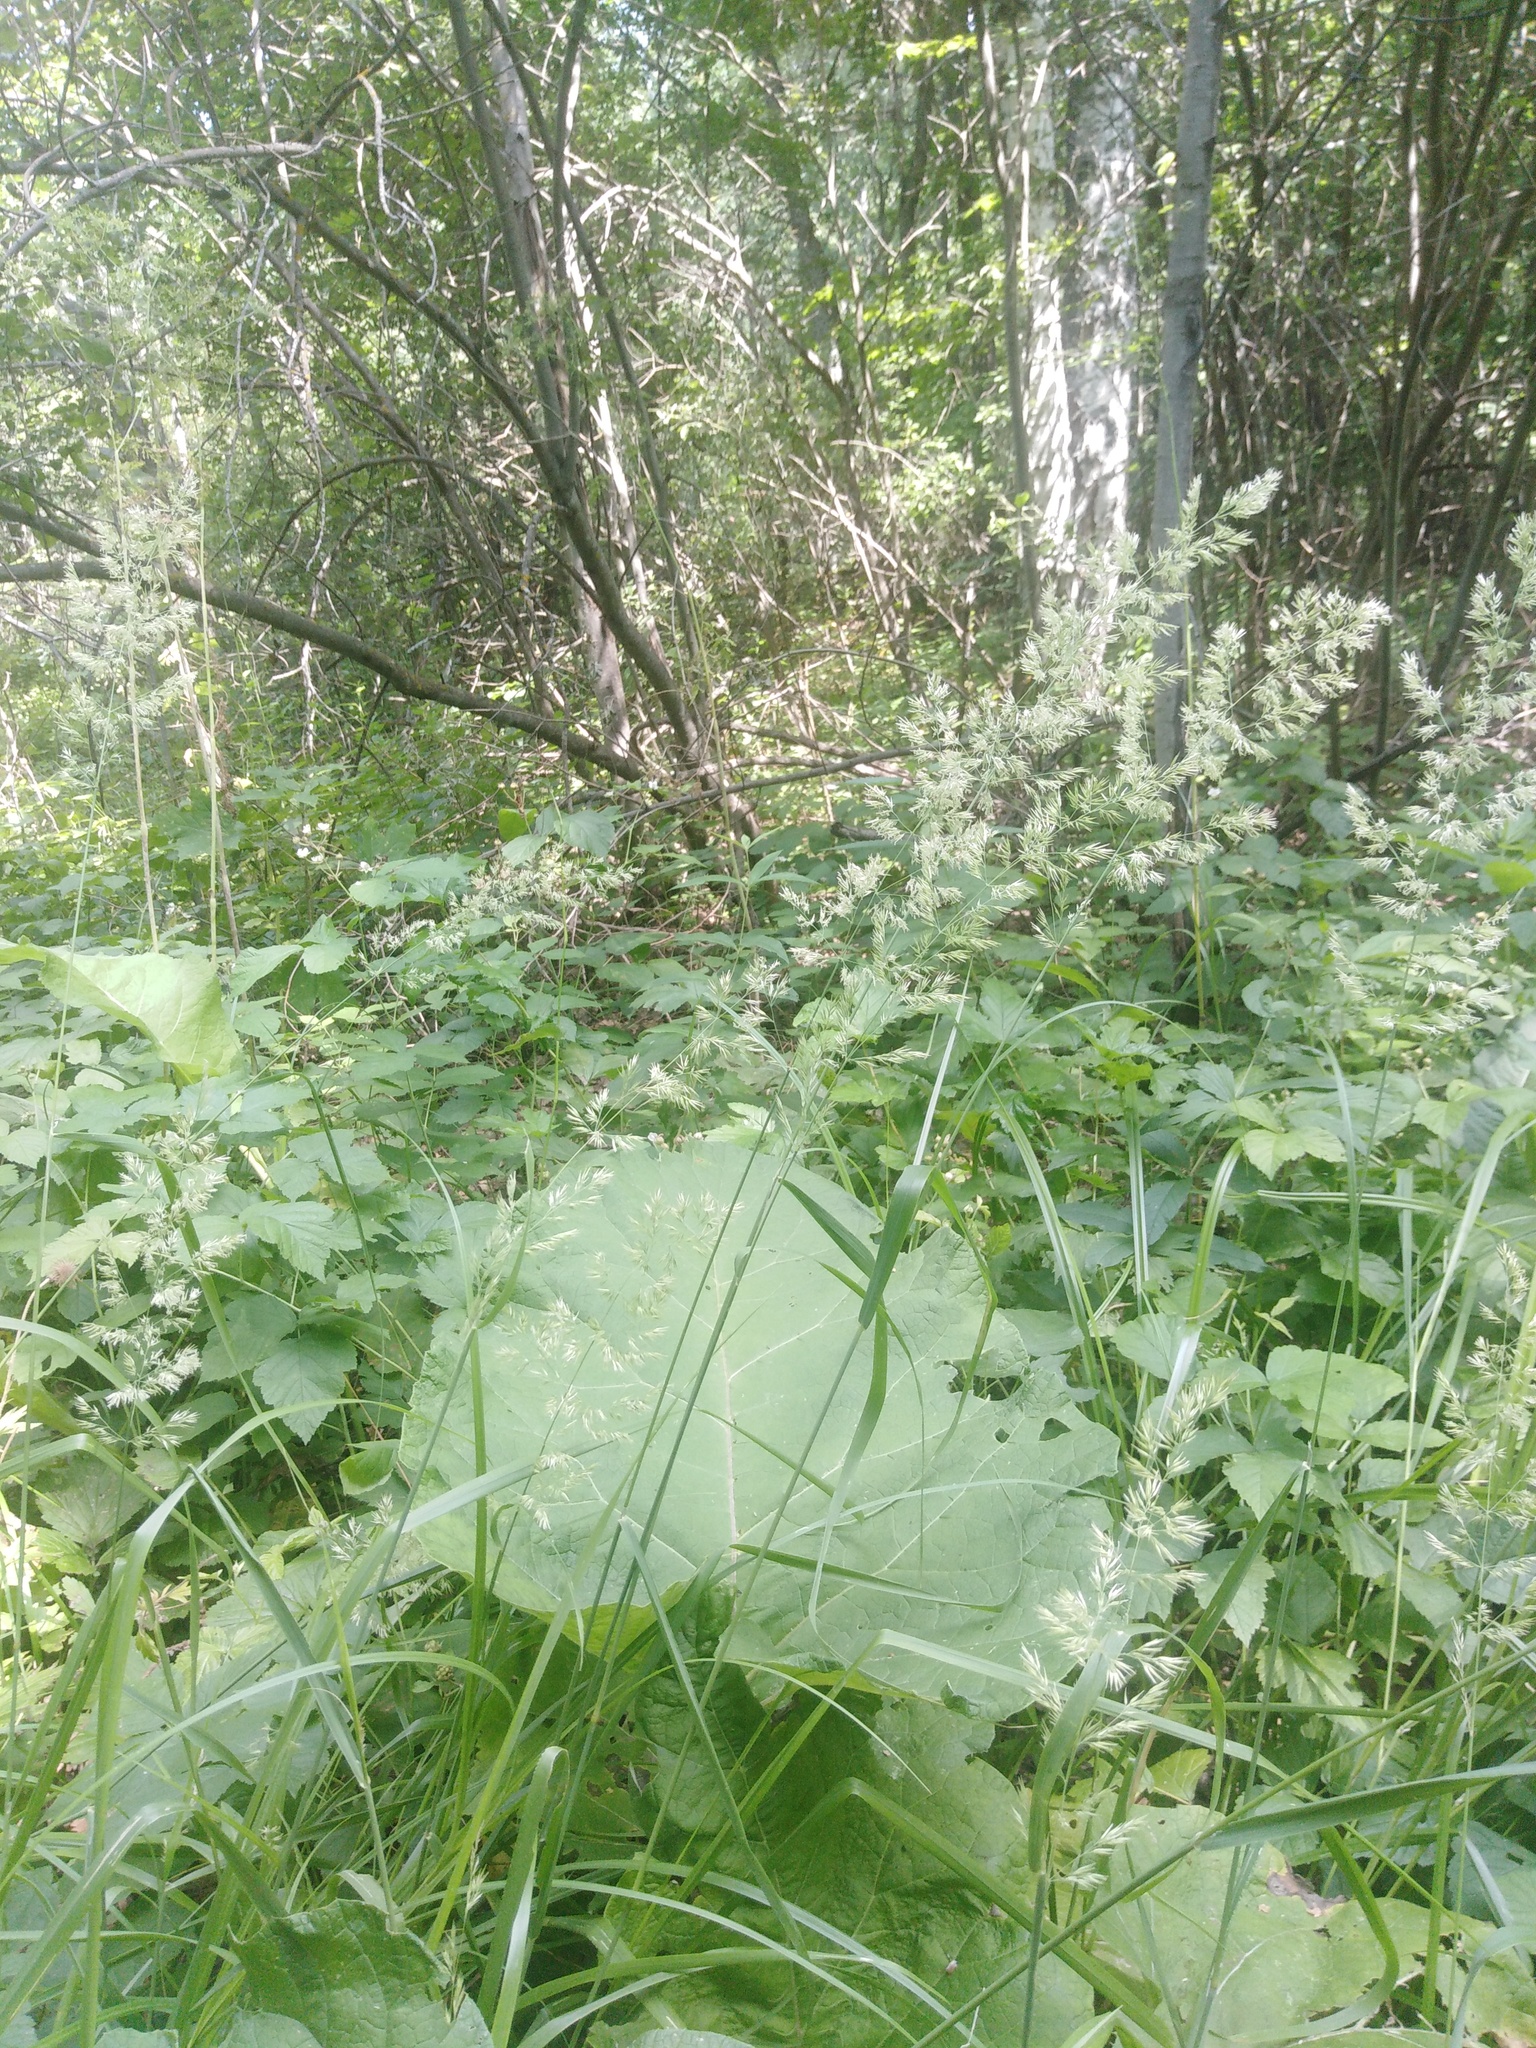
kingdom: Plantae
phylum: Tracheophyta
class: Liliopsida
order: Poales
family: Poaceae
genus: Calamagrostis
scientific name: Calamagrostis canescens
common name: Purple small-reed
